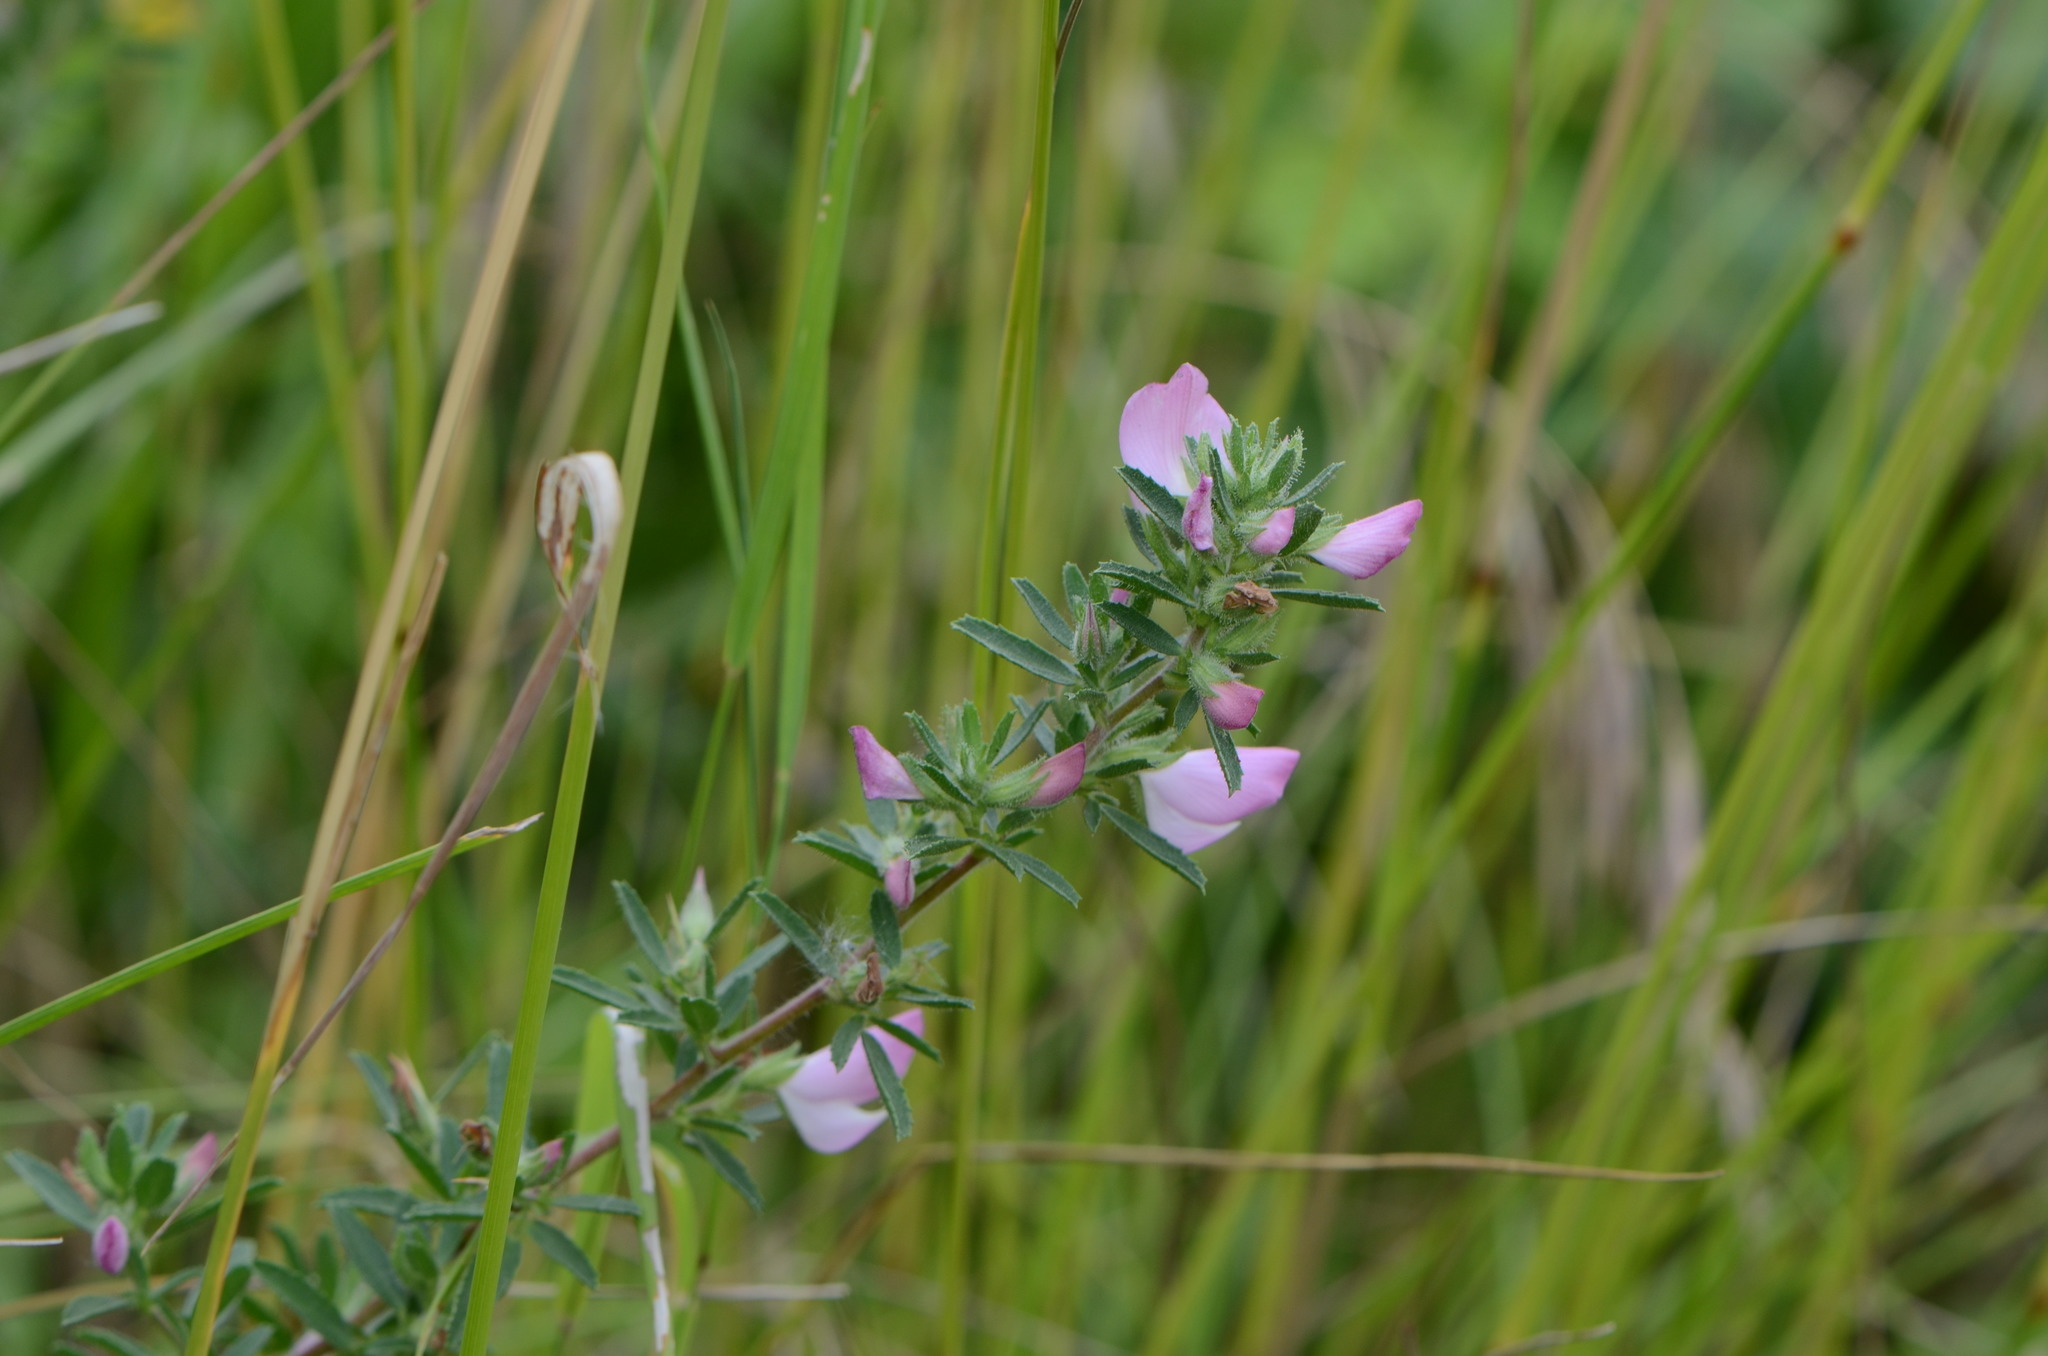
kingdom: Plantae
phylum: Tracheophyta
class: Magnoliopsida
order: Fabales
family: Fabaceae
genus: Ononis
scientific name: Ononis spinosa
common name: Spiny restharrow
